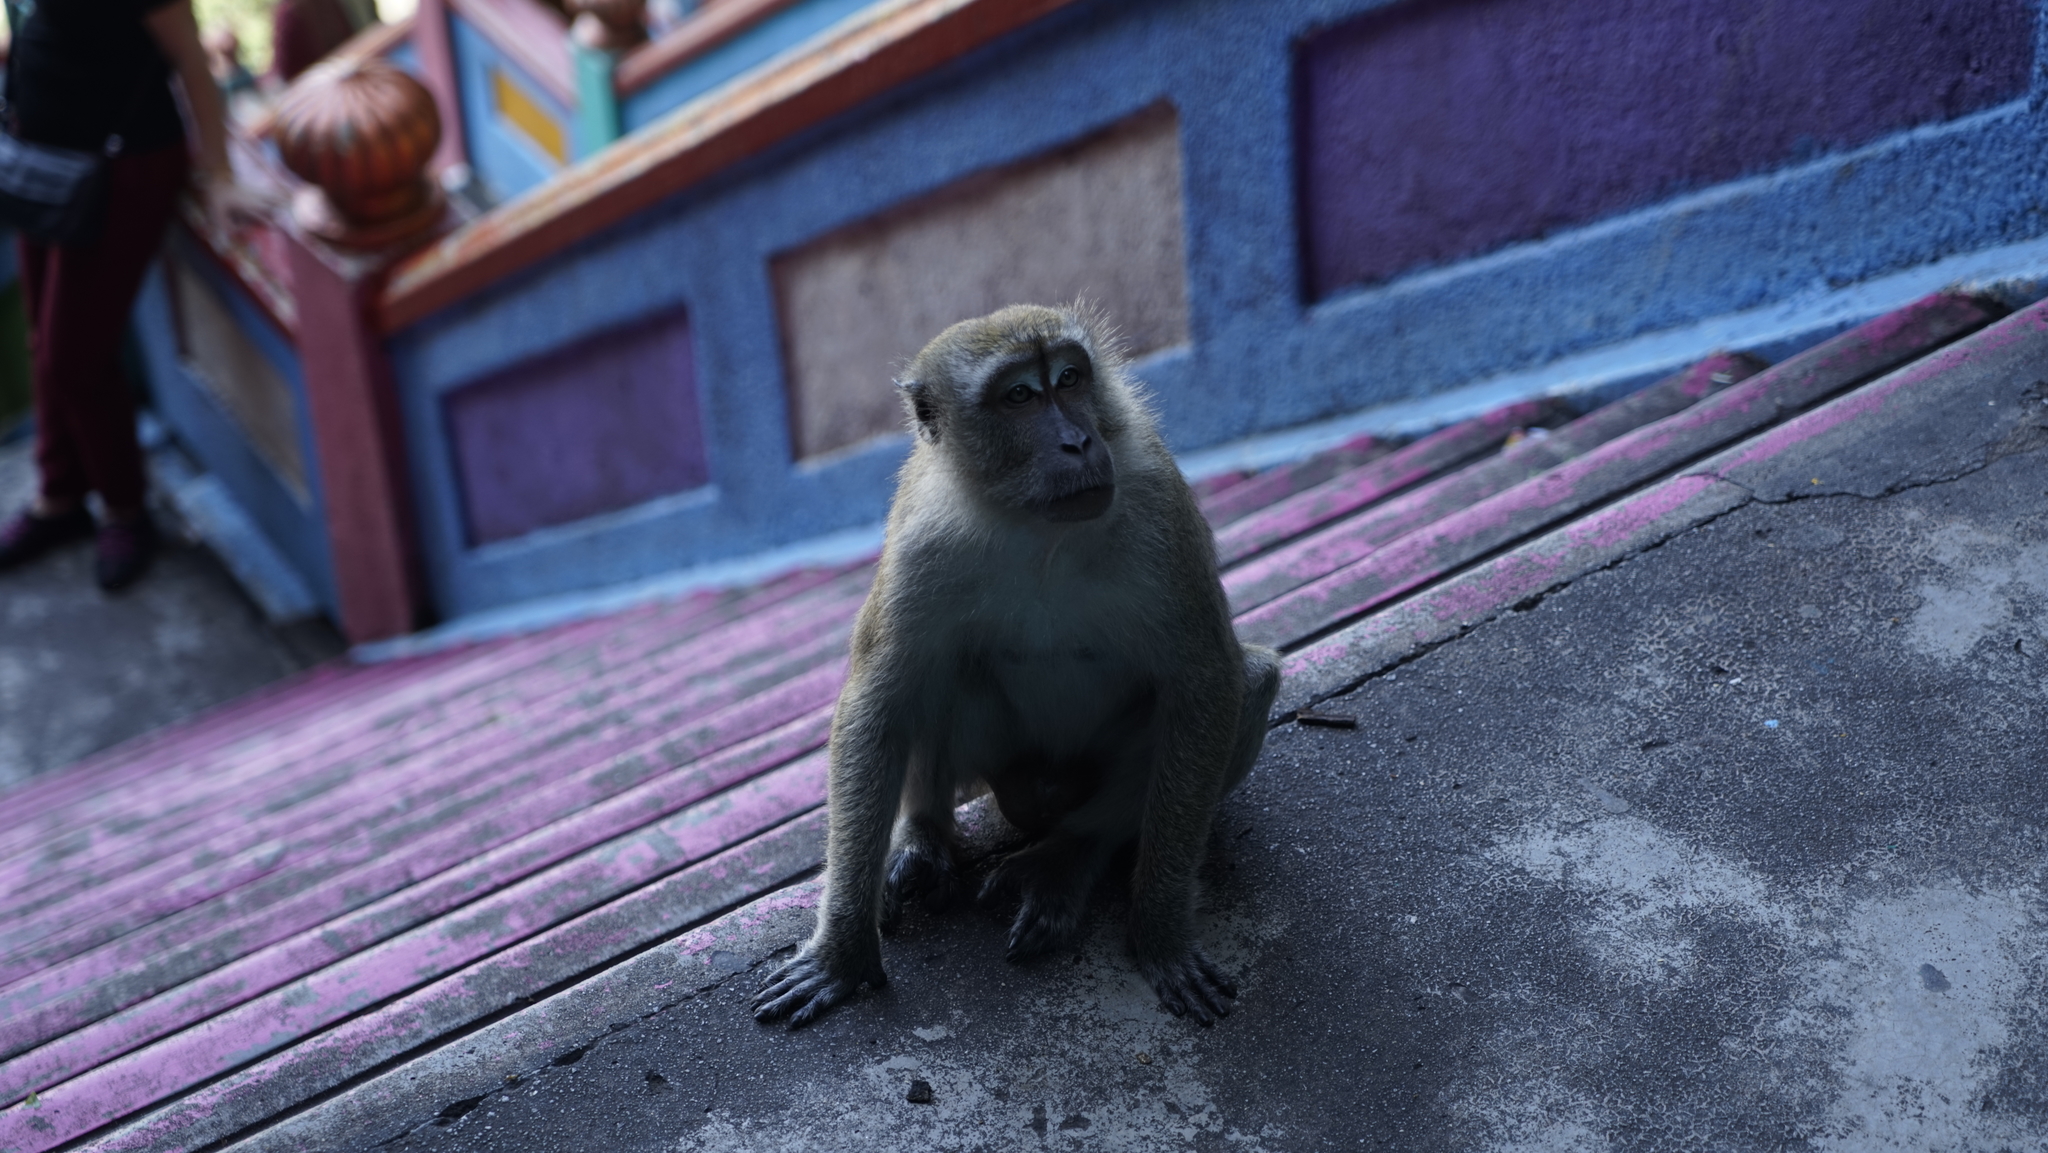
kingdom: Animalia
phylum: Chordata
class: Mammalia
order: Primates
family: Cercopithecidae
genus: Macaca
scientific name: Macaca fascicularis
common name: Crab-eating macaque
